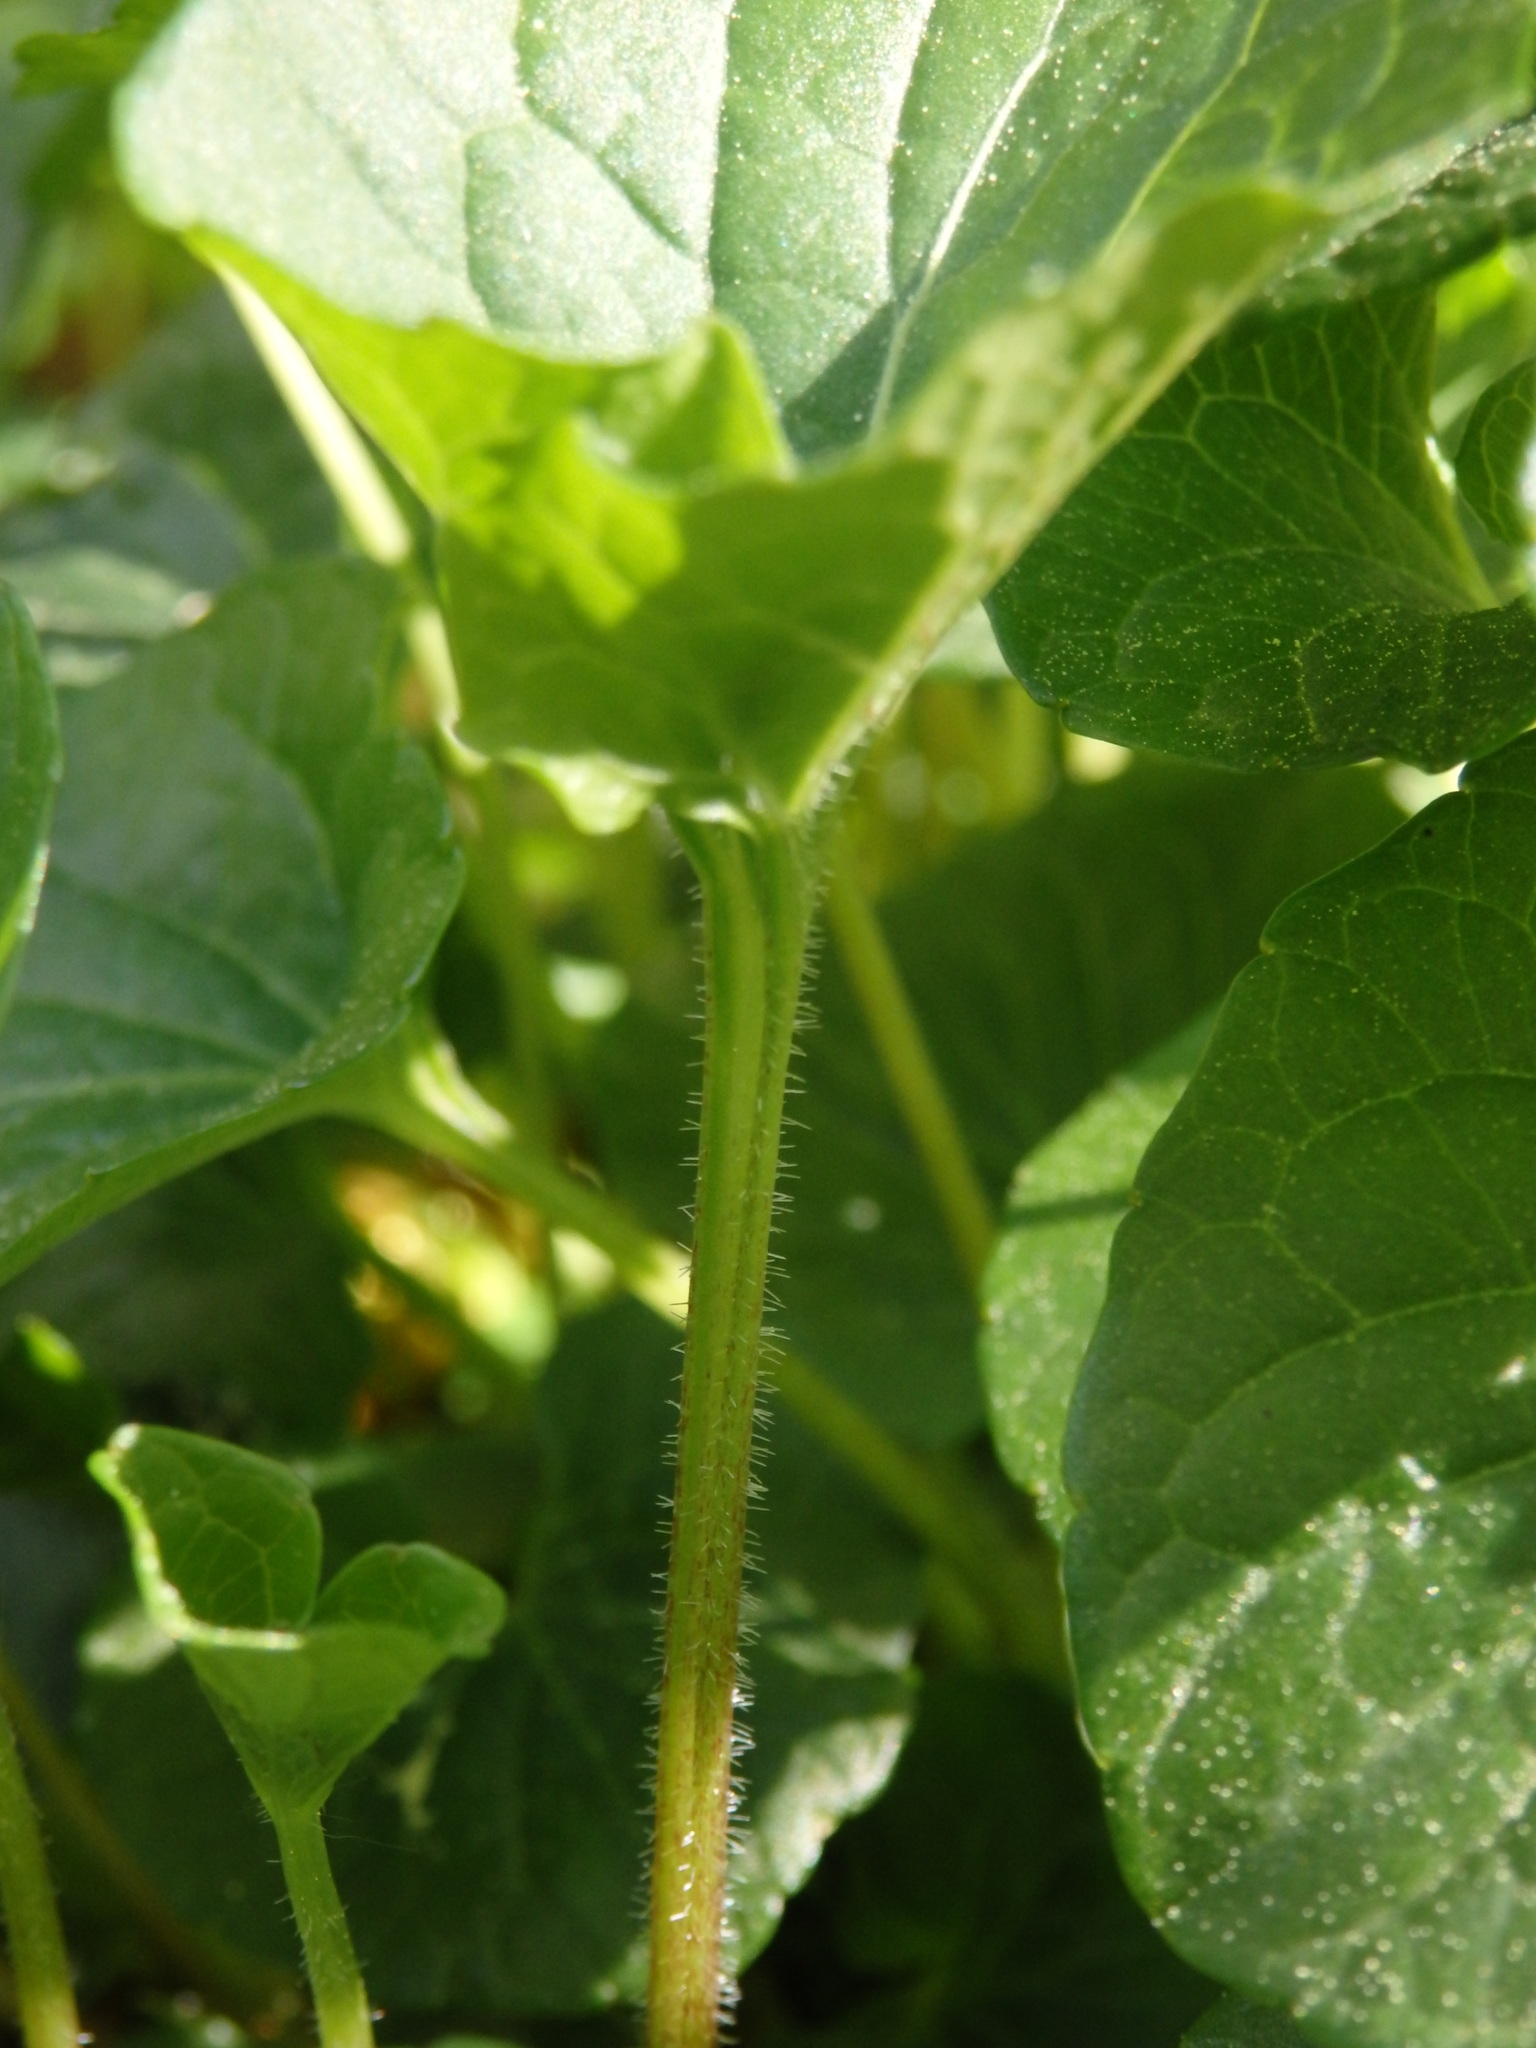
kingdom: Plantae
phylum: Tracheophyta
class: Magnoliopsida
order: Malpighiales
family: Violaceae
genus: Viola
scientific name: Viola palustris
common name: Marsh violet
